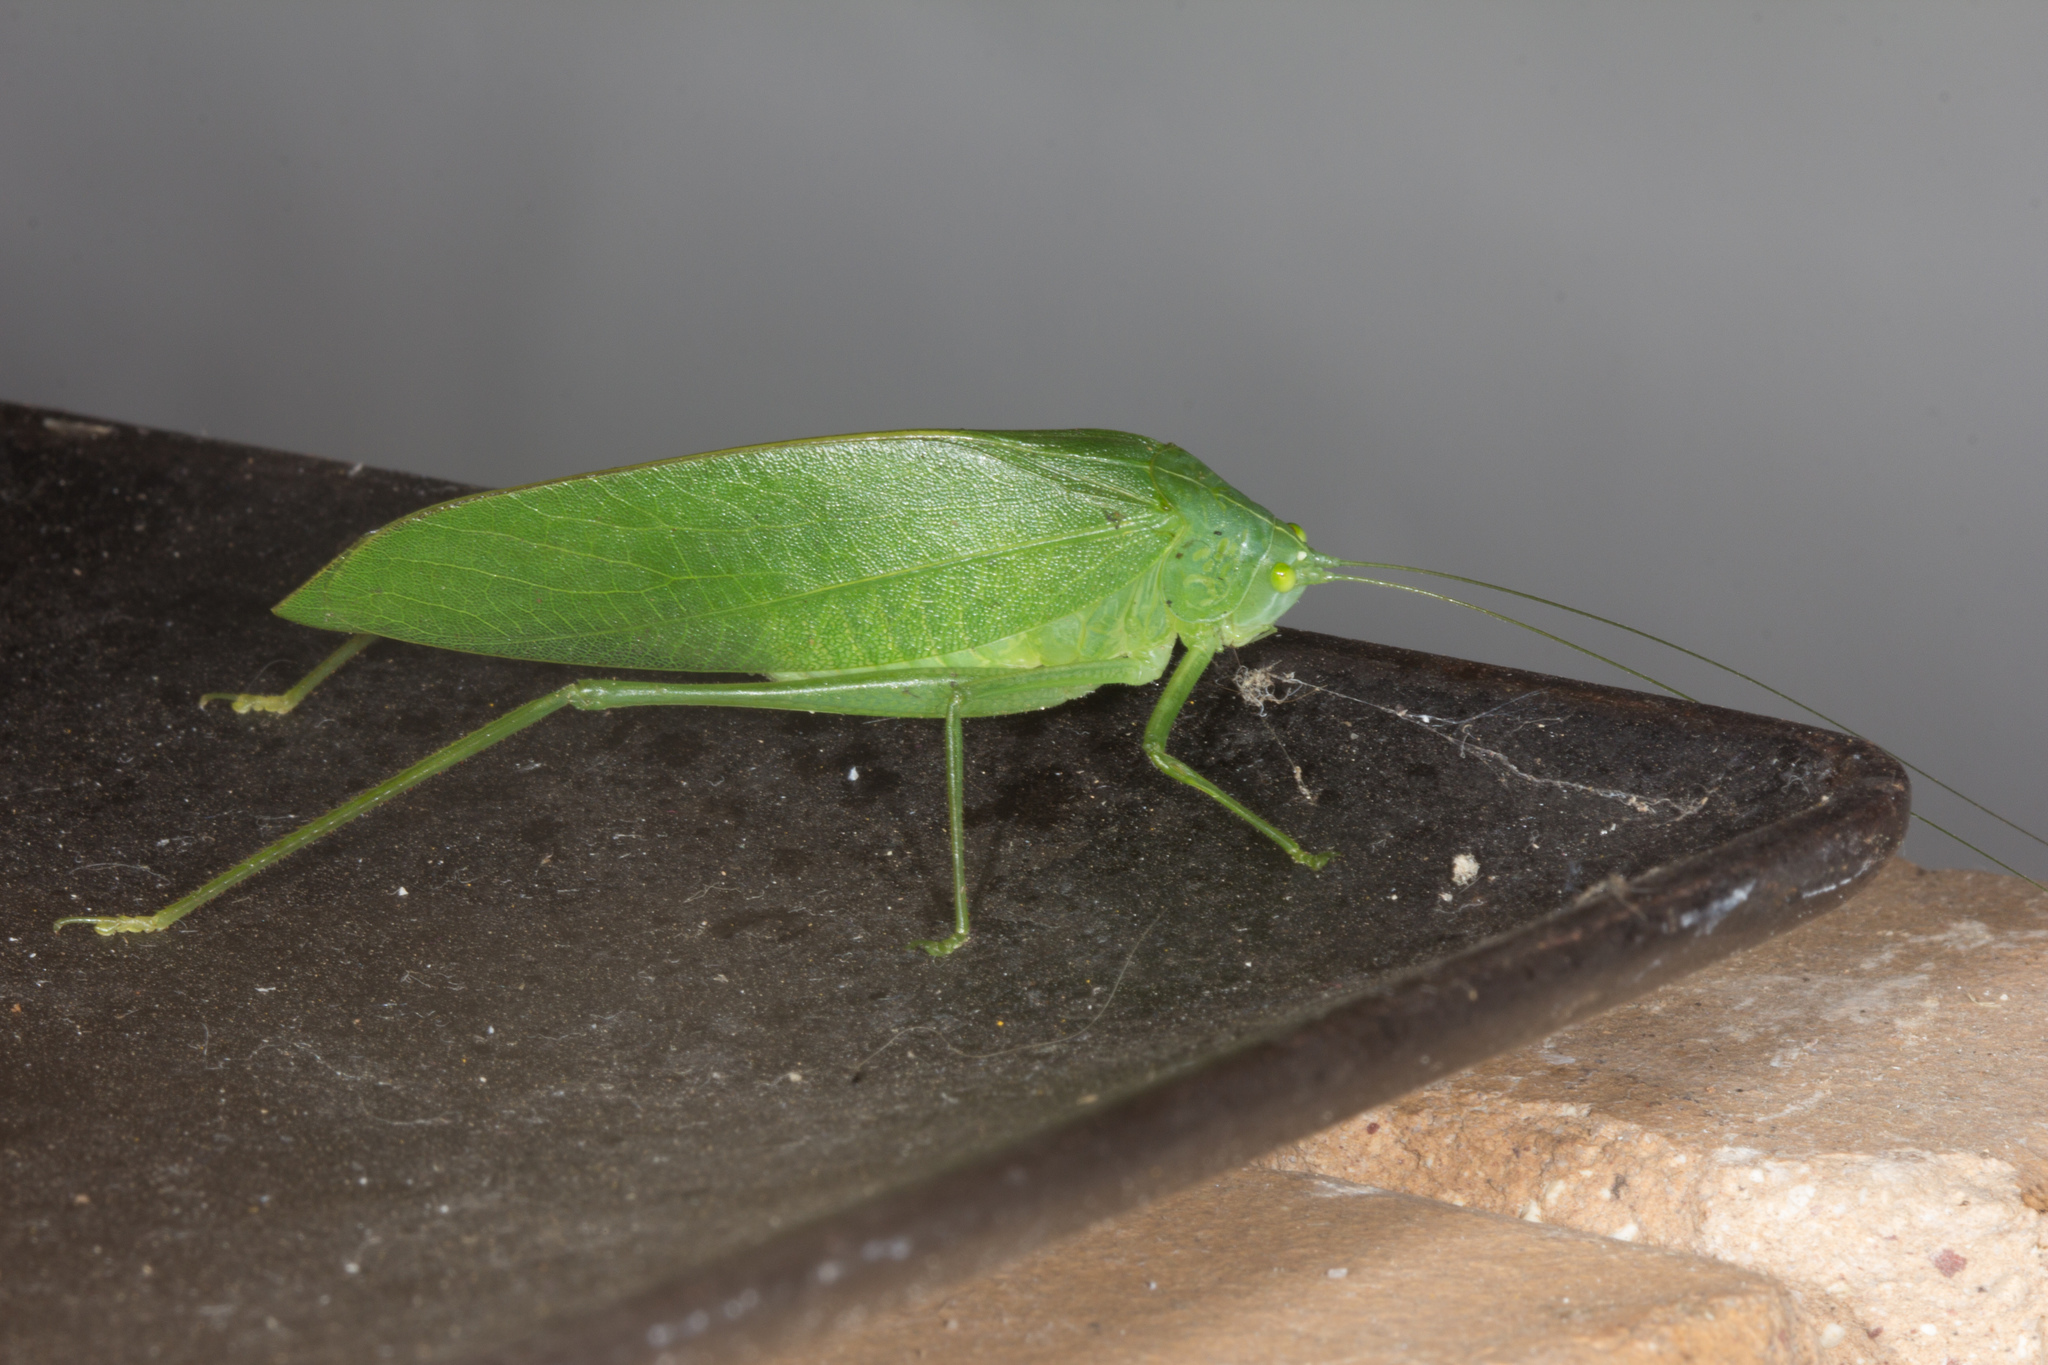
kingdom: Animalia
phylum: Arthropoda
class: Insecta
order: Orthoptera
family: Tettigoniidae
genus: Pelerinus
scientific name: Pelerinus rostratus
